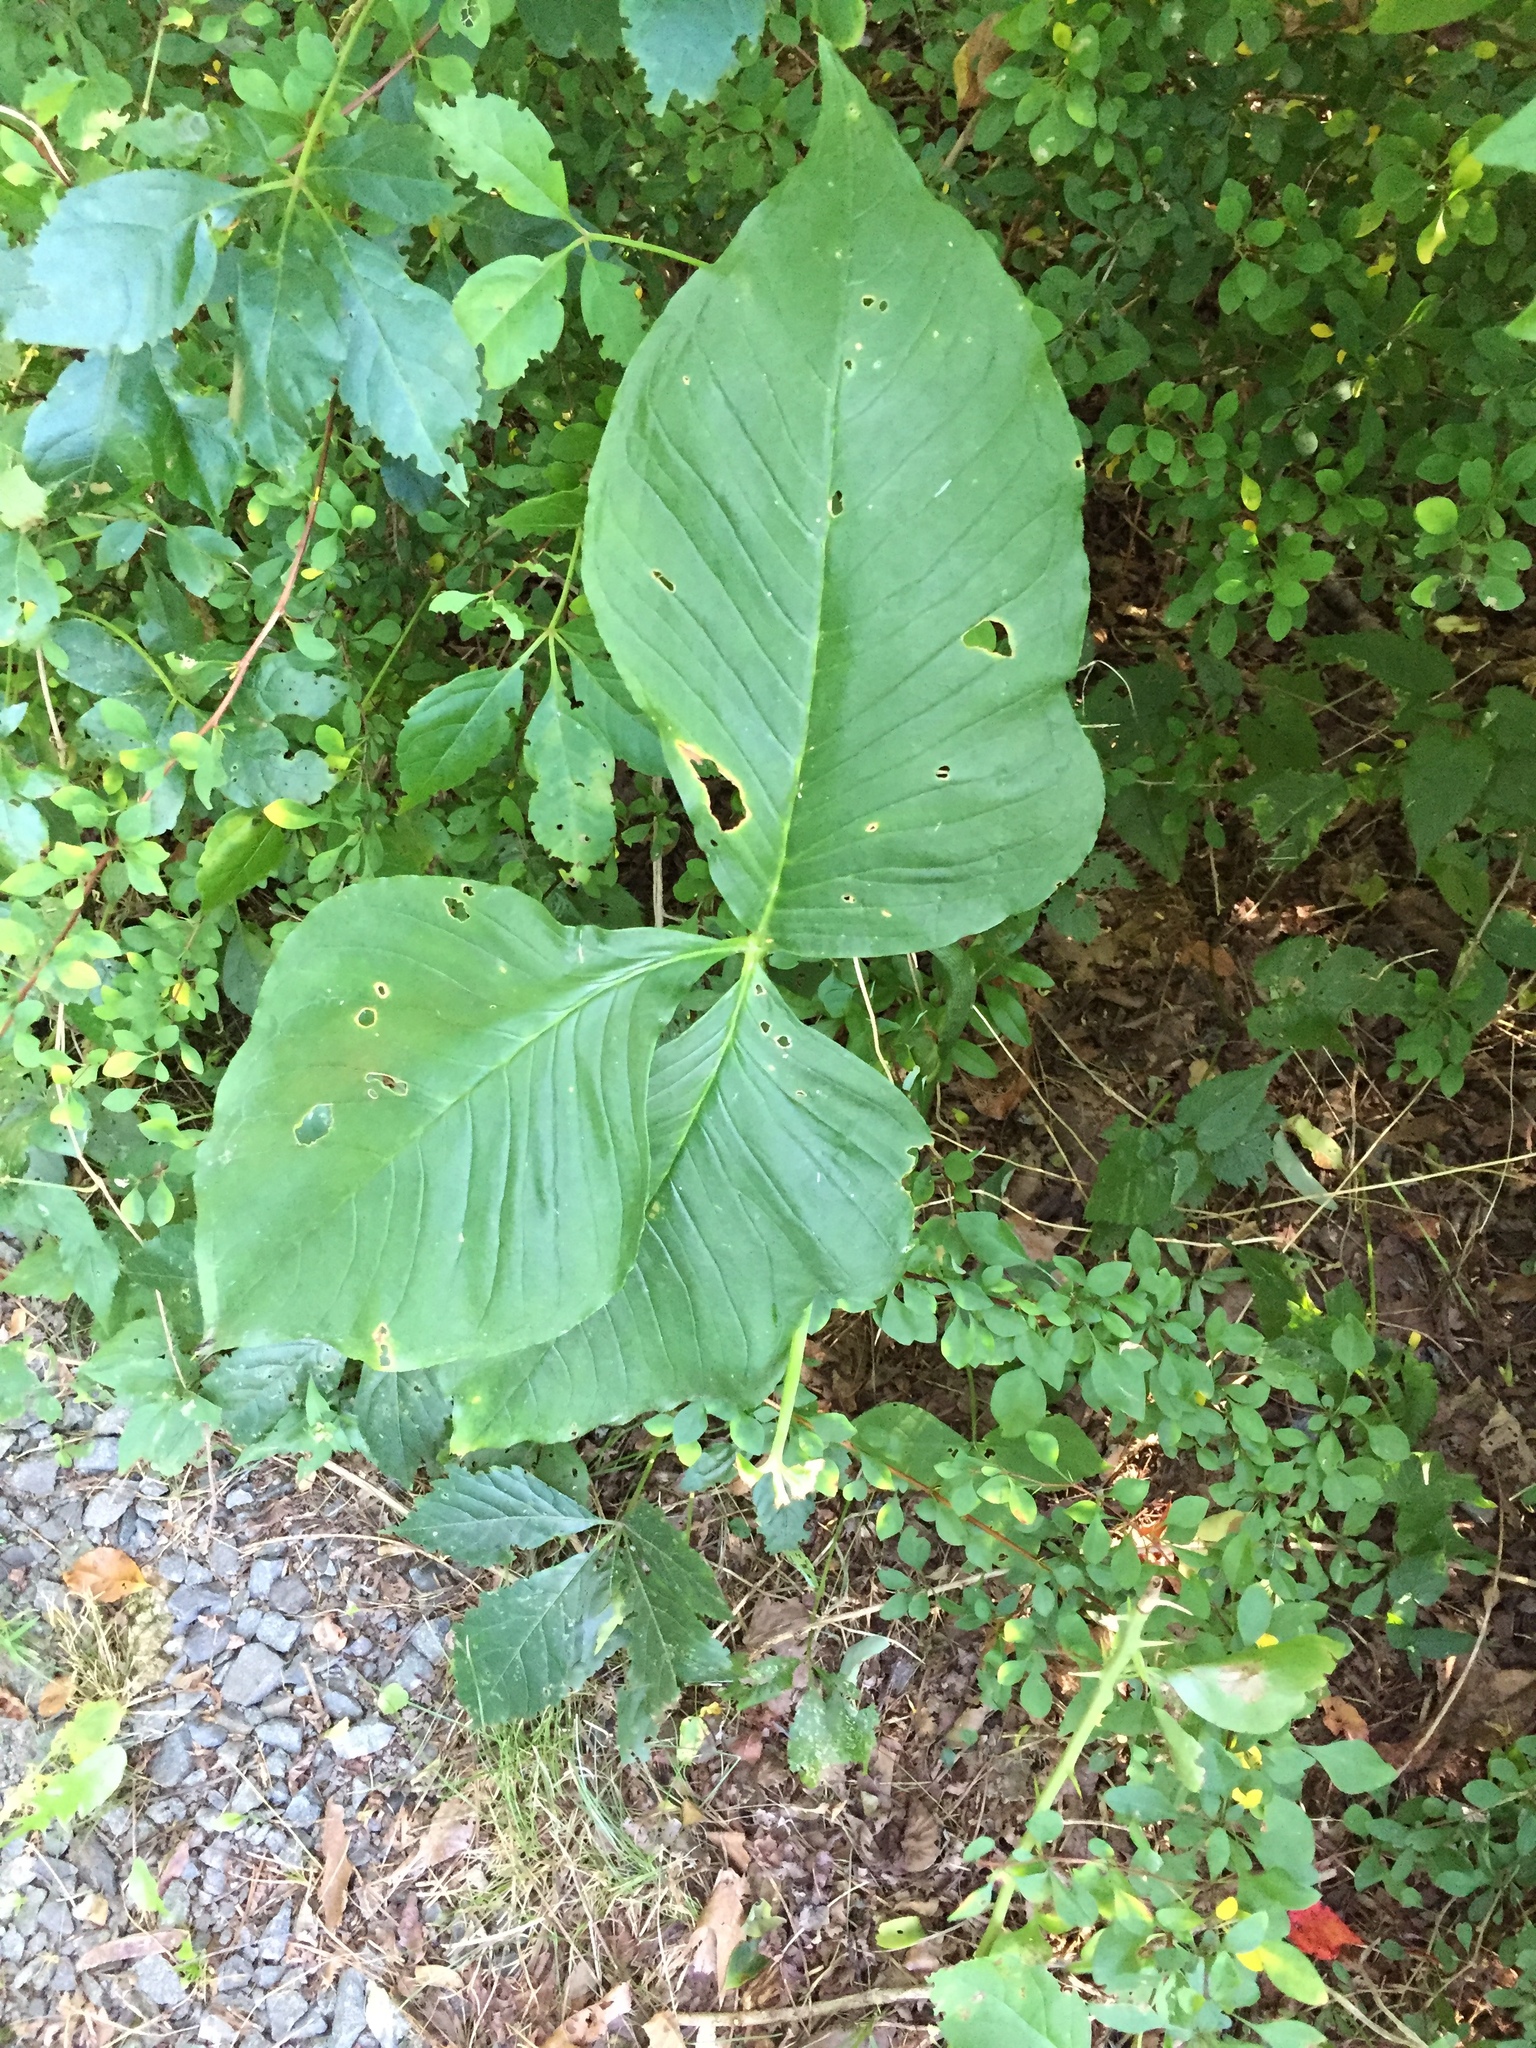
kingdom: Plantae
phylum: Tracheophyta
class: Liliopsida
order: Alismatales
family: Araceae
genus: Arisaema
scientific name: Arisaema triphyllum
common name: Jack-in-the-pulpit
